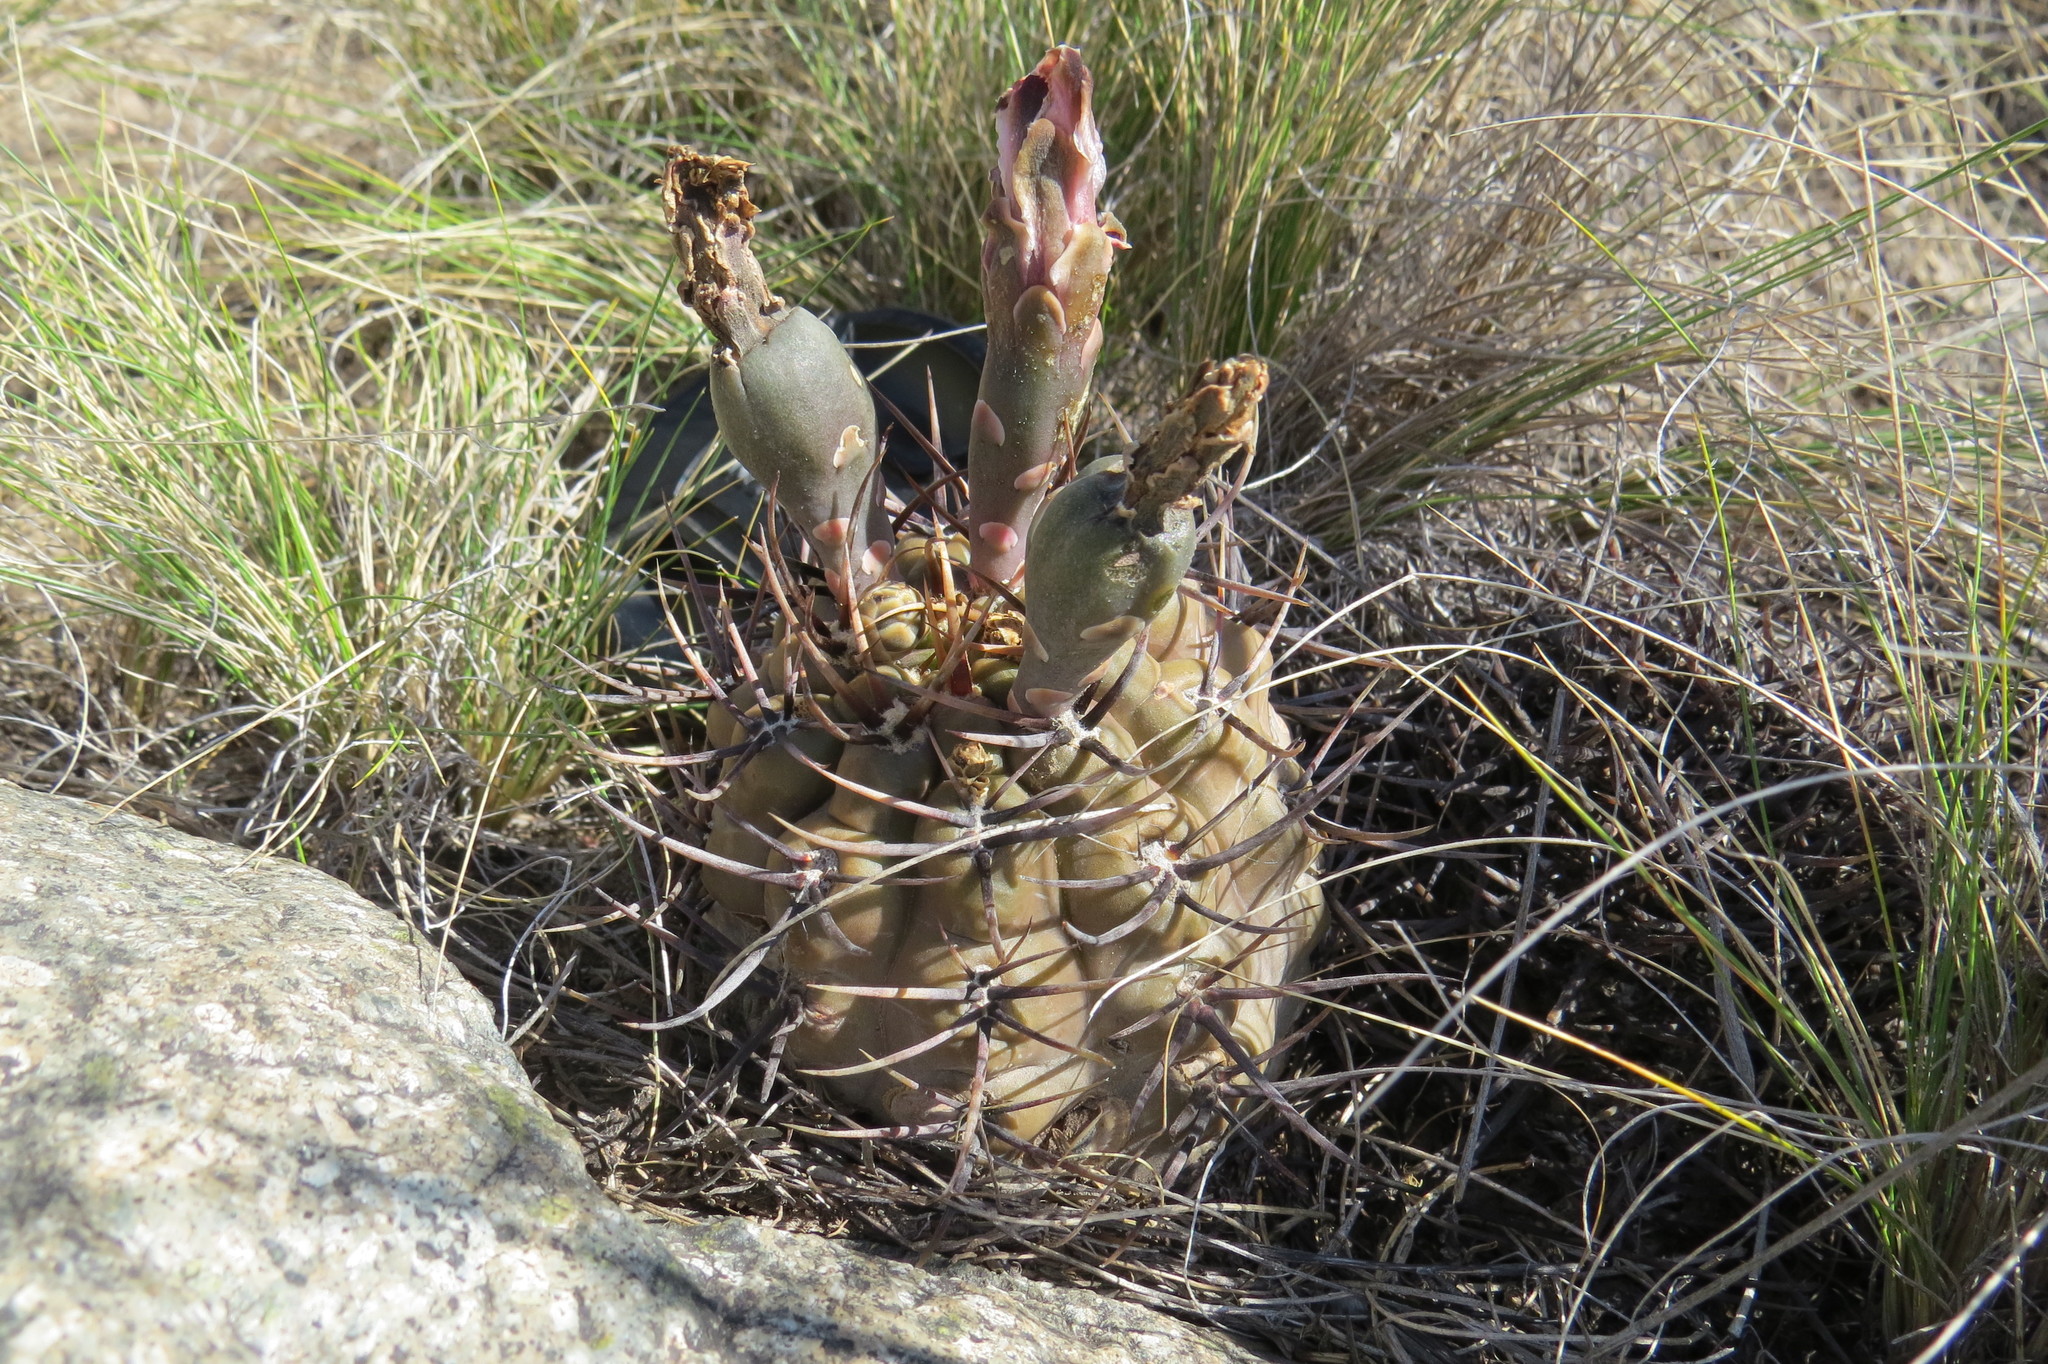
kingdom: Plantae
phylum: Tracheophyta
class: Magnoliopsida
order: Caryophyllales
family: Cactaceae
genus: Gymnocalycium
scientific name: Gymnocalycium striglianum
